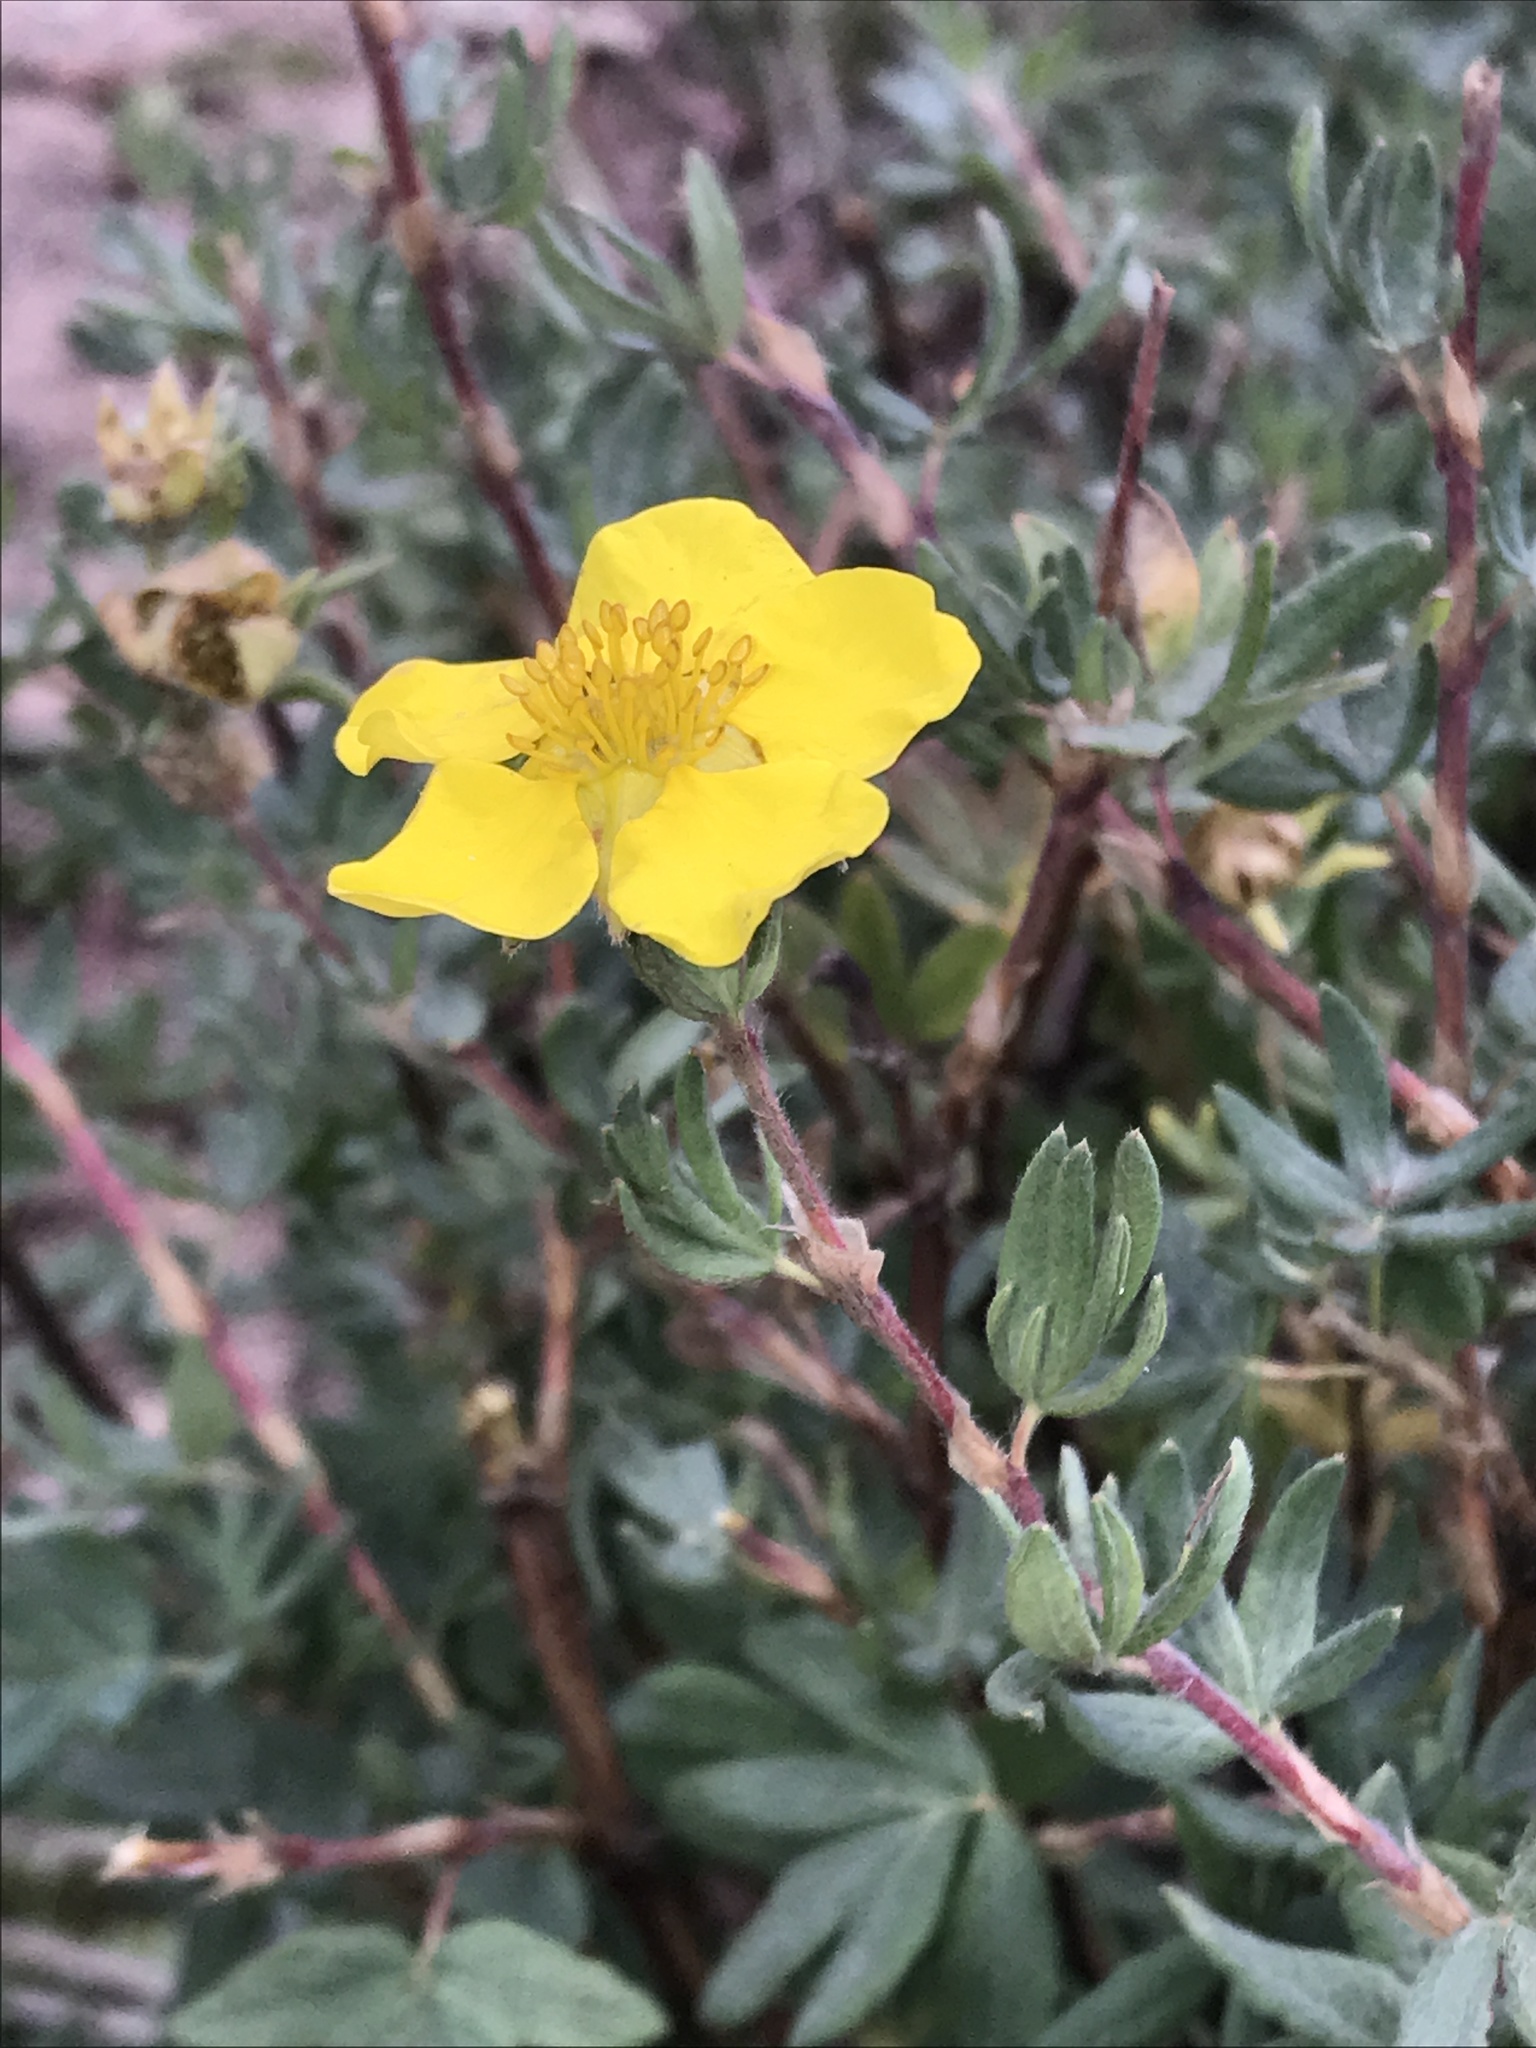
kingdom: Plantae
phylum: Tracheophyta
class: Magnoliopsida
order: Rosales
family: Rosaceae
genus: Dasiphora
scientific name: Dasiphora fruticosa
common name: Shrubby cinquefoil
